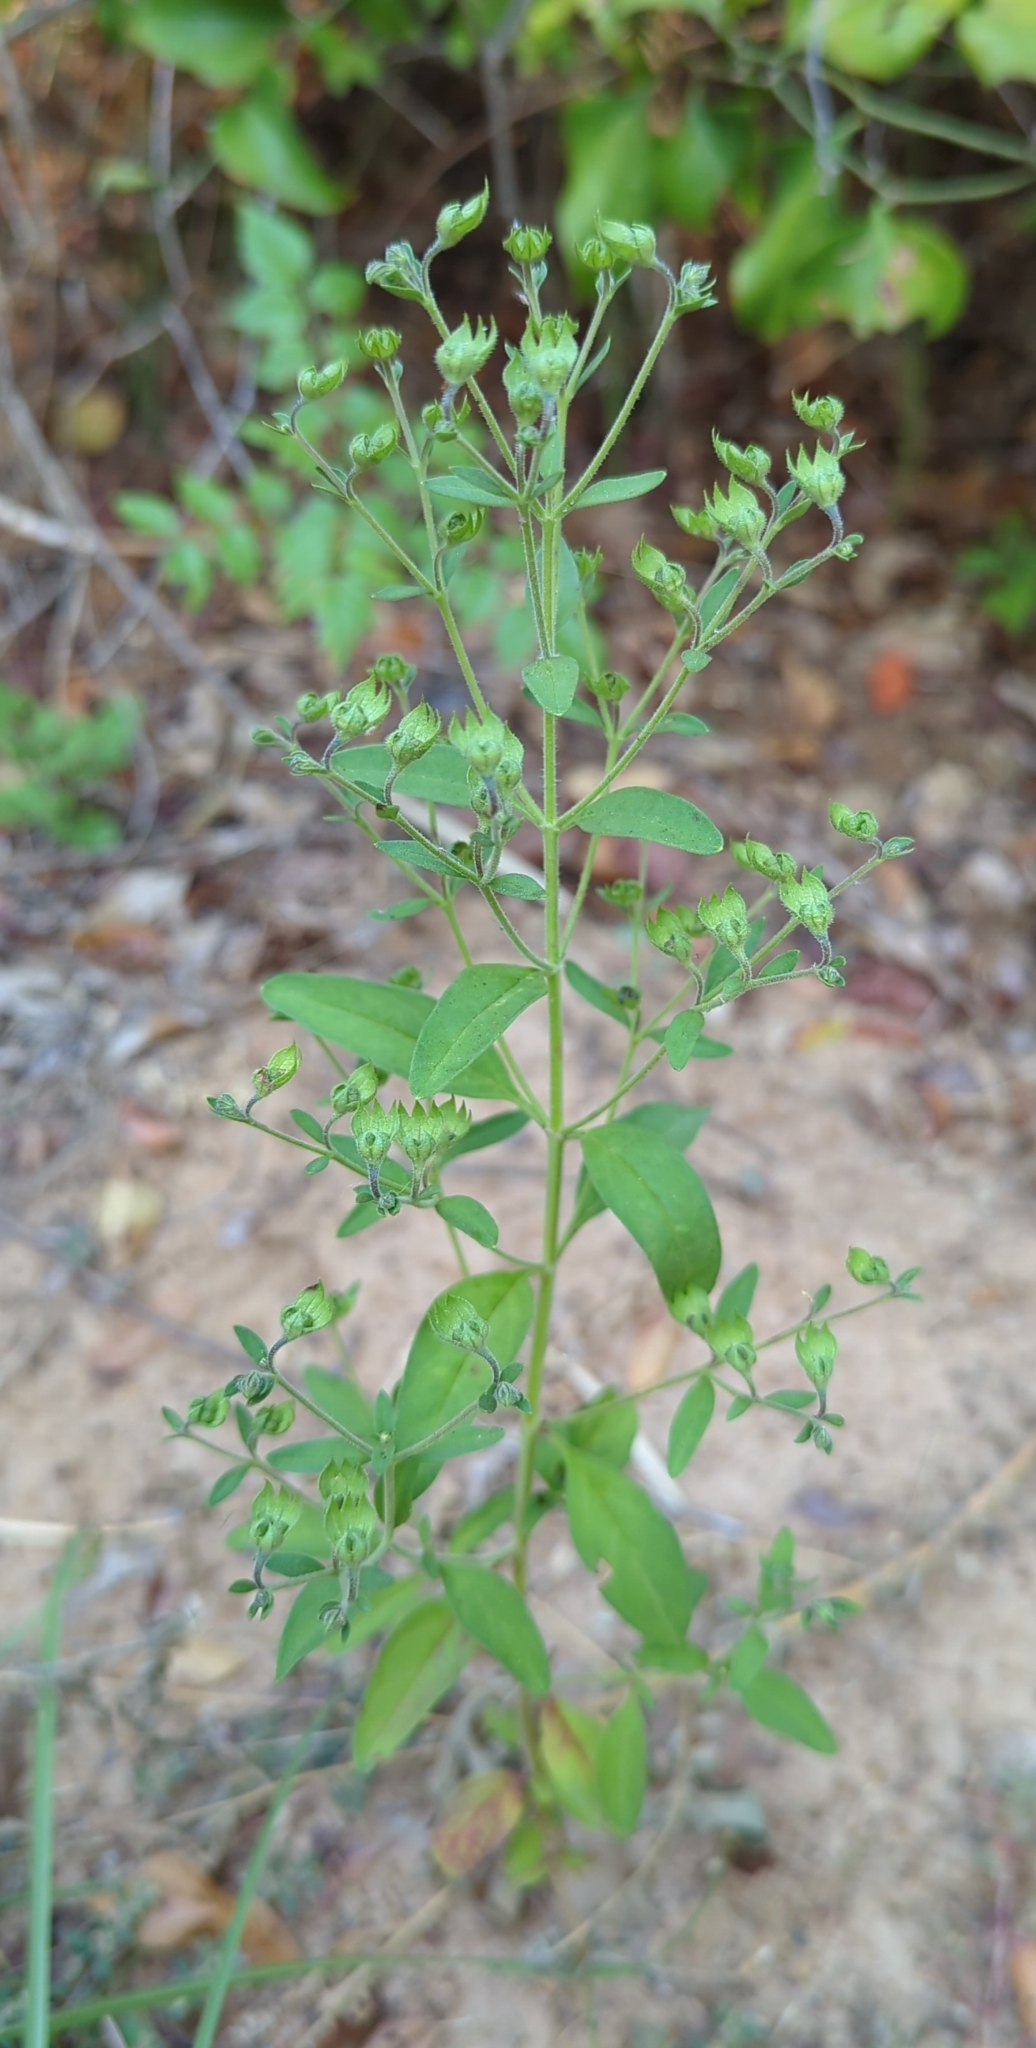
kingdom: Plantae
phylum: Tracheophyta
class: Magnoliopsida
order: Lamiales
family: Lamiaceae
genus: Trichostema
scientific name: Trichostema dichotomum
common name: Bastard pennyroyal
